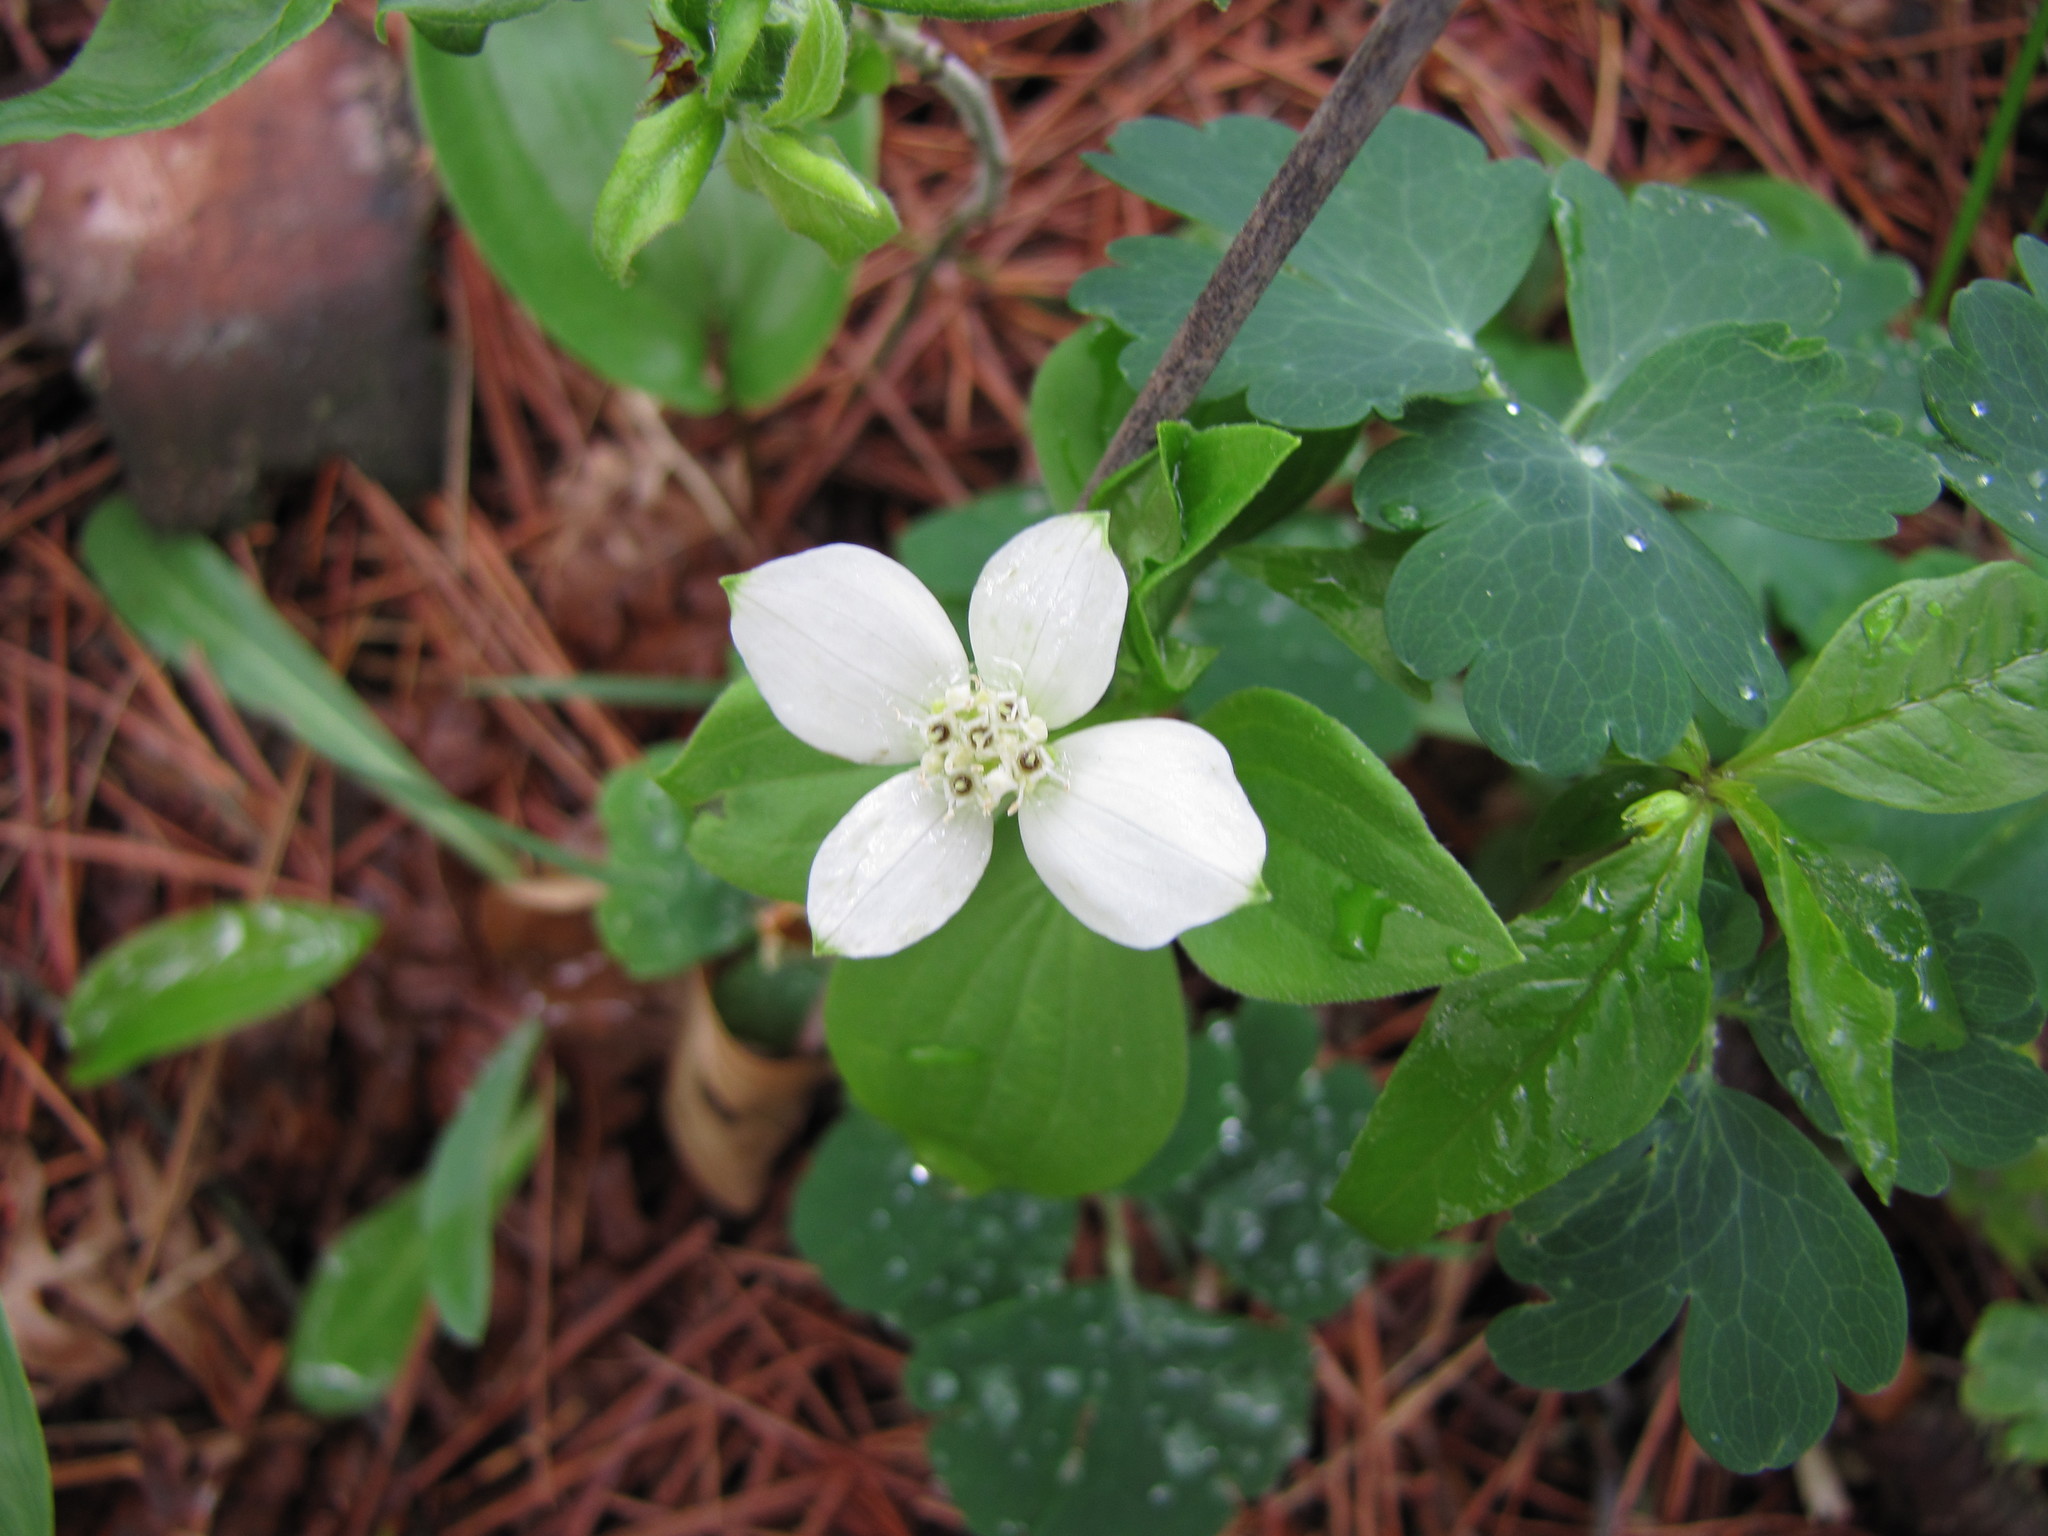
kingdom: Plantae
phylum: Tracheophyta
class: Magnoliopsida
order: Cornales
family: Cornaceae
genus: Cornus
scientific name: Cornus canadensis
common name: Creeping dogwood
